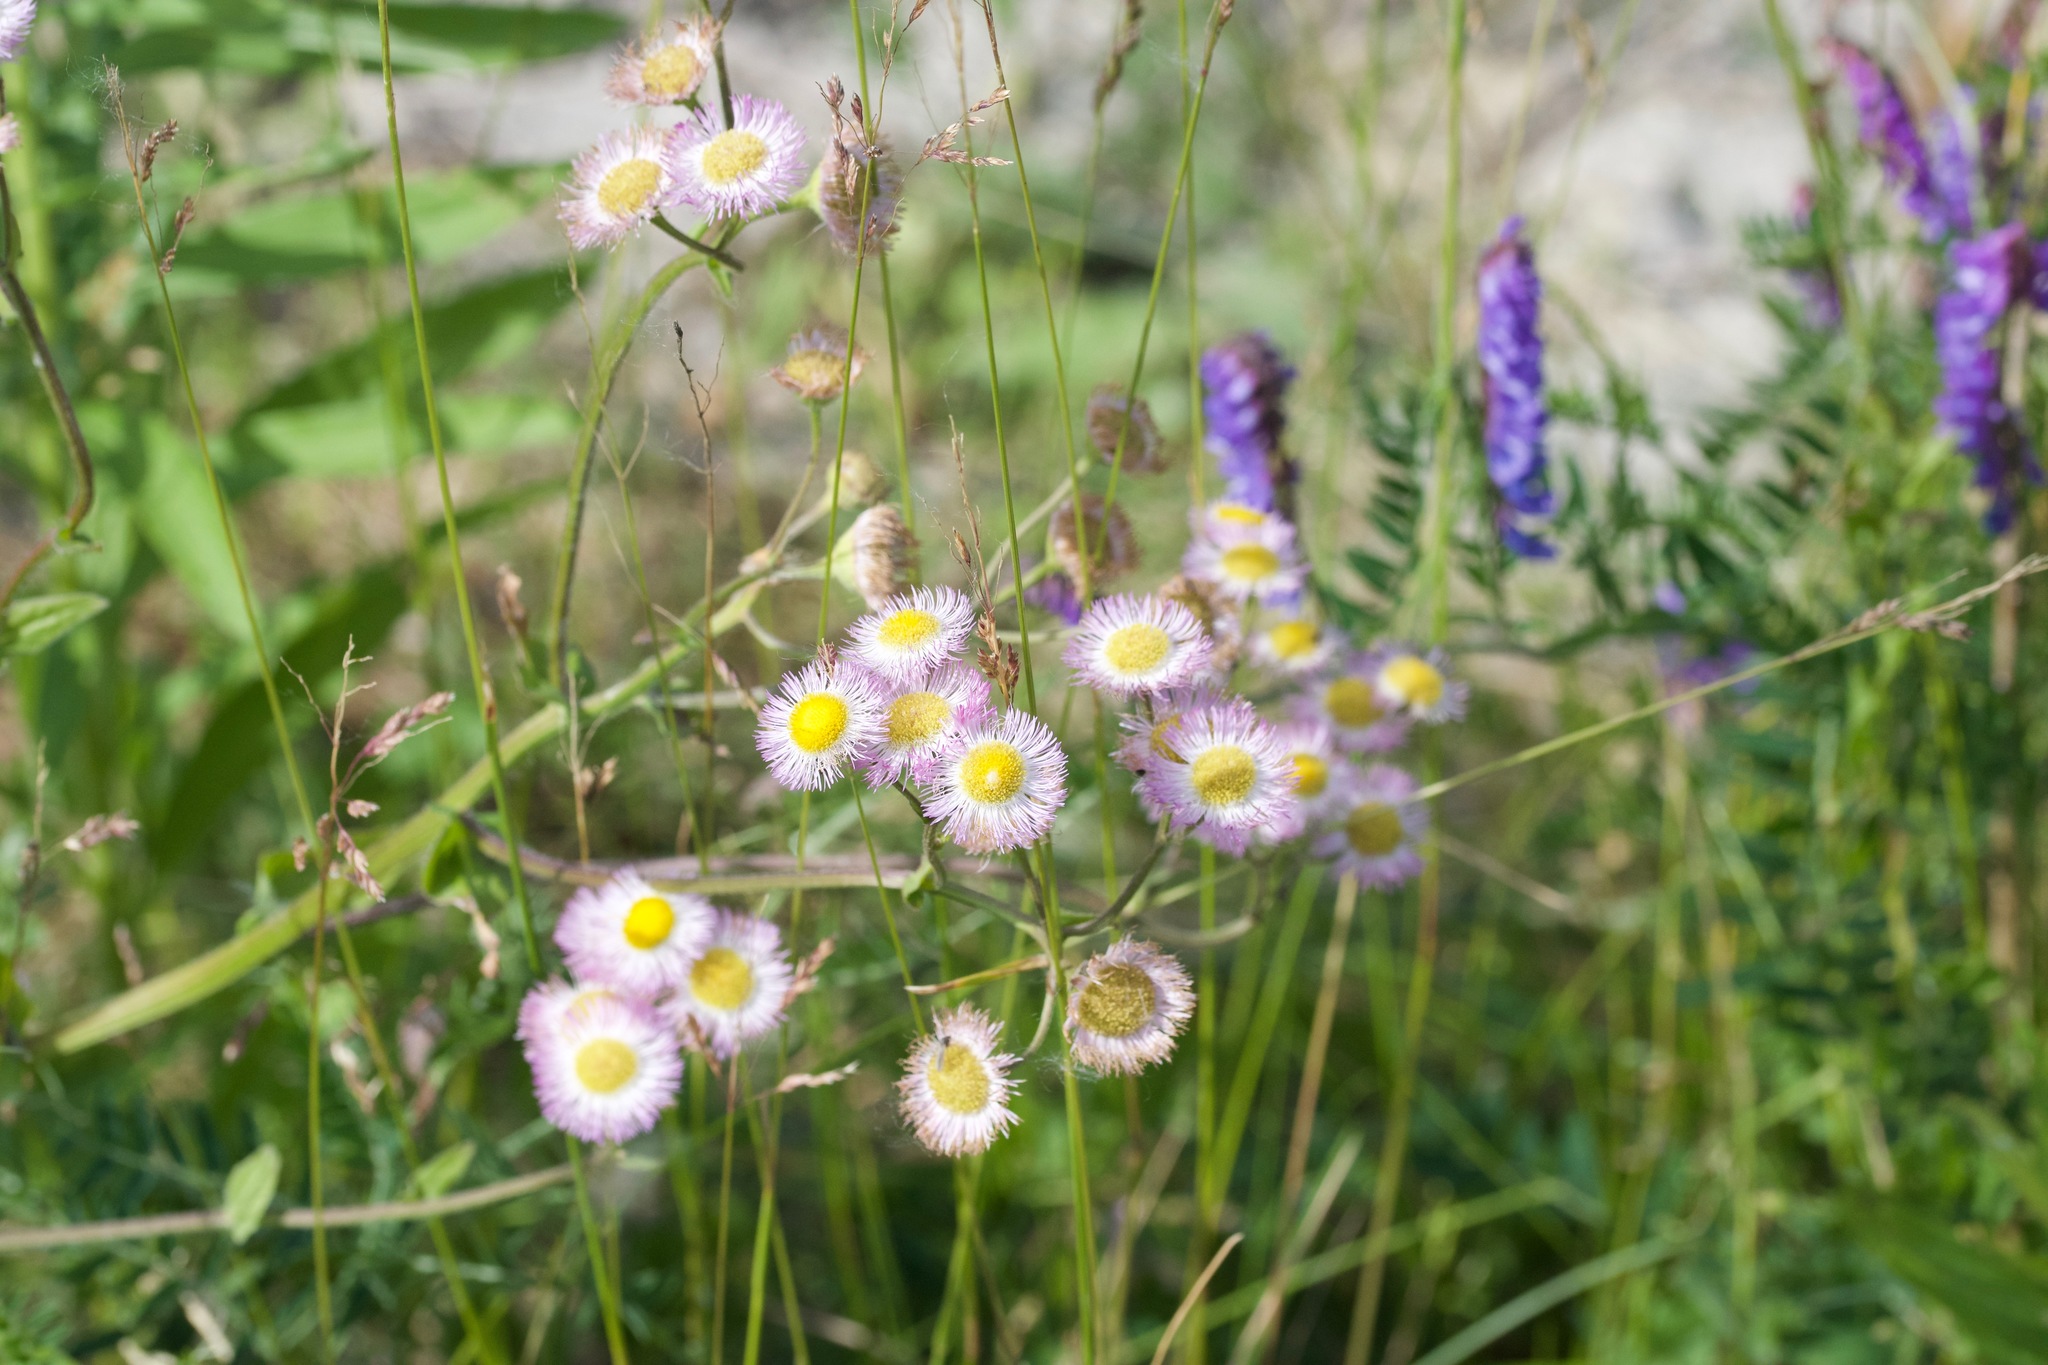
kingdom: Plantae
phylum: Tracheophyta
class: Magnoliopsida
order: Asterales
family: Asteraceae
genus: Erigeron
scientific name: Erigeron philadelphicus
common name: Robin's-plantain
